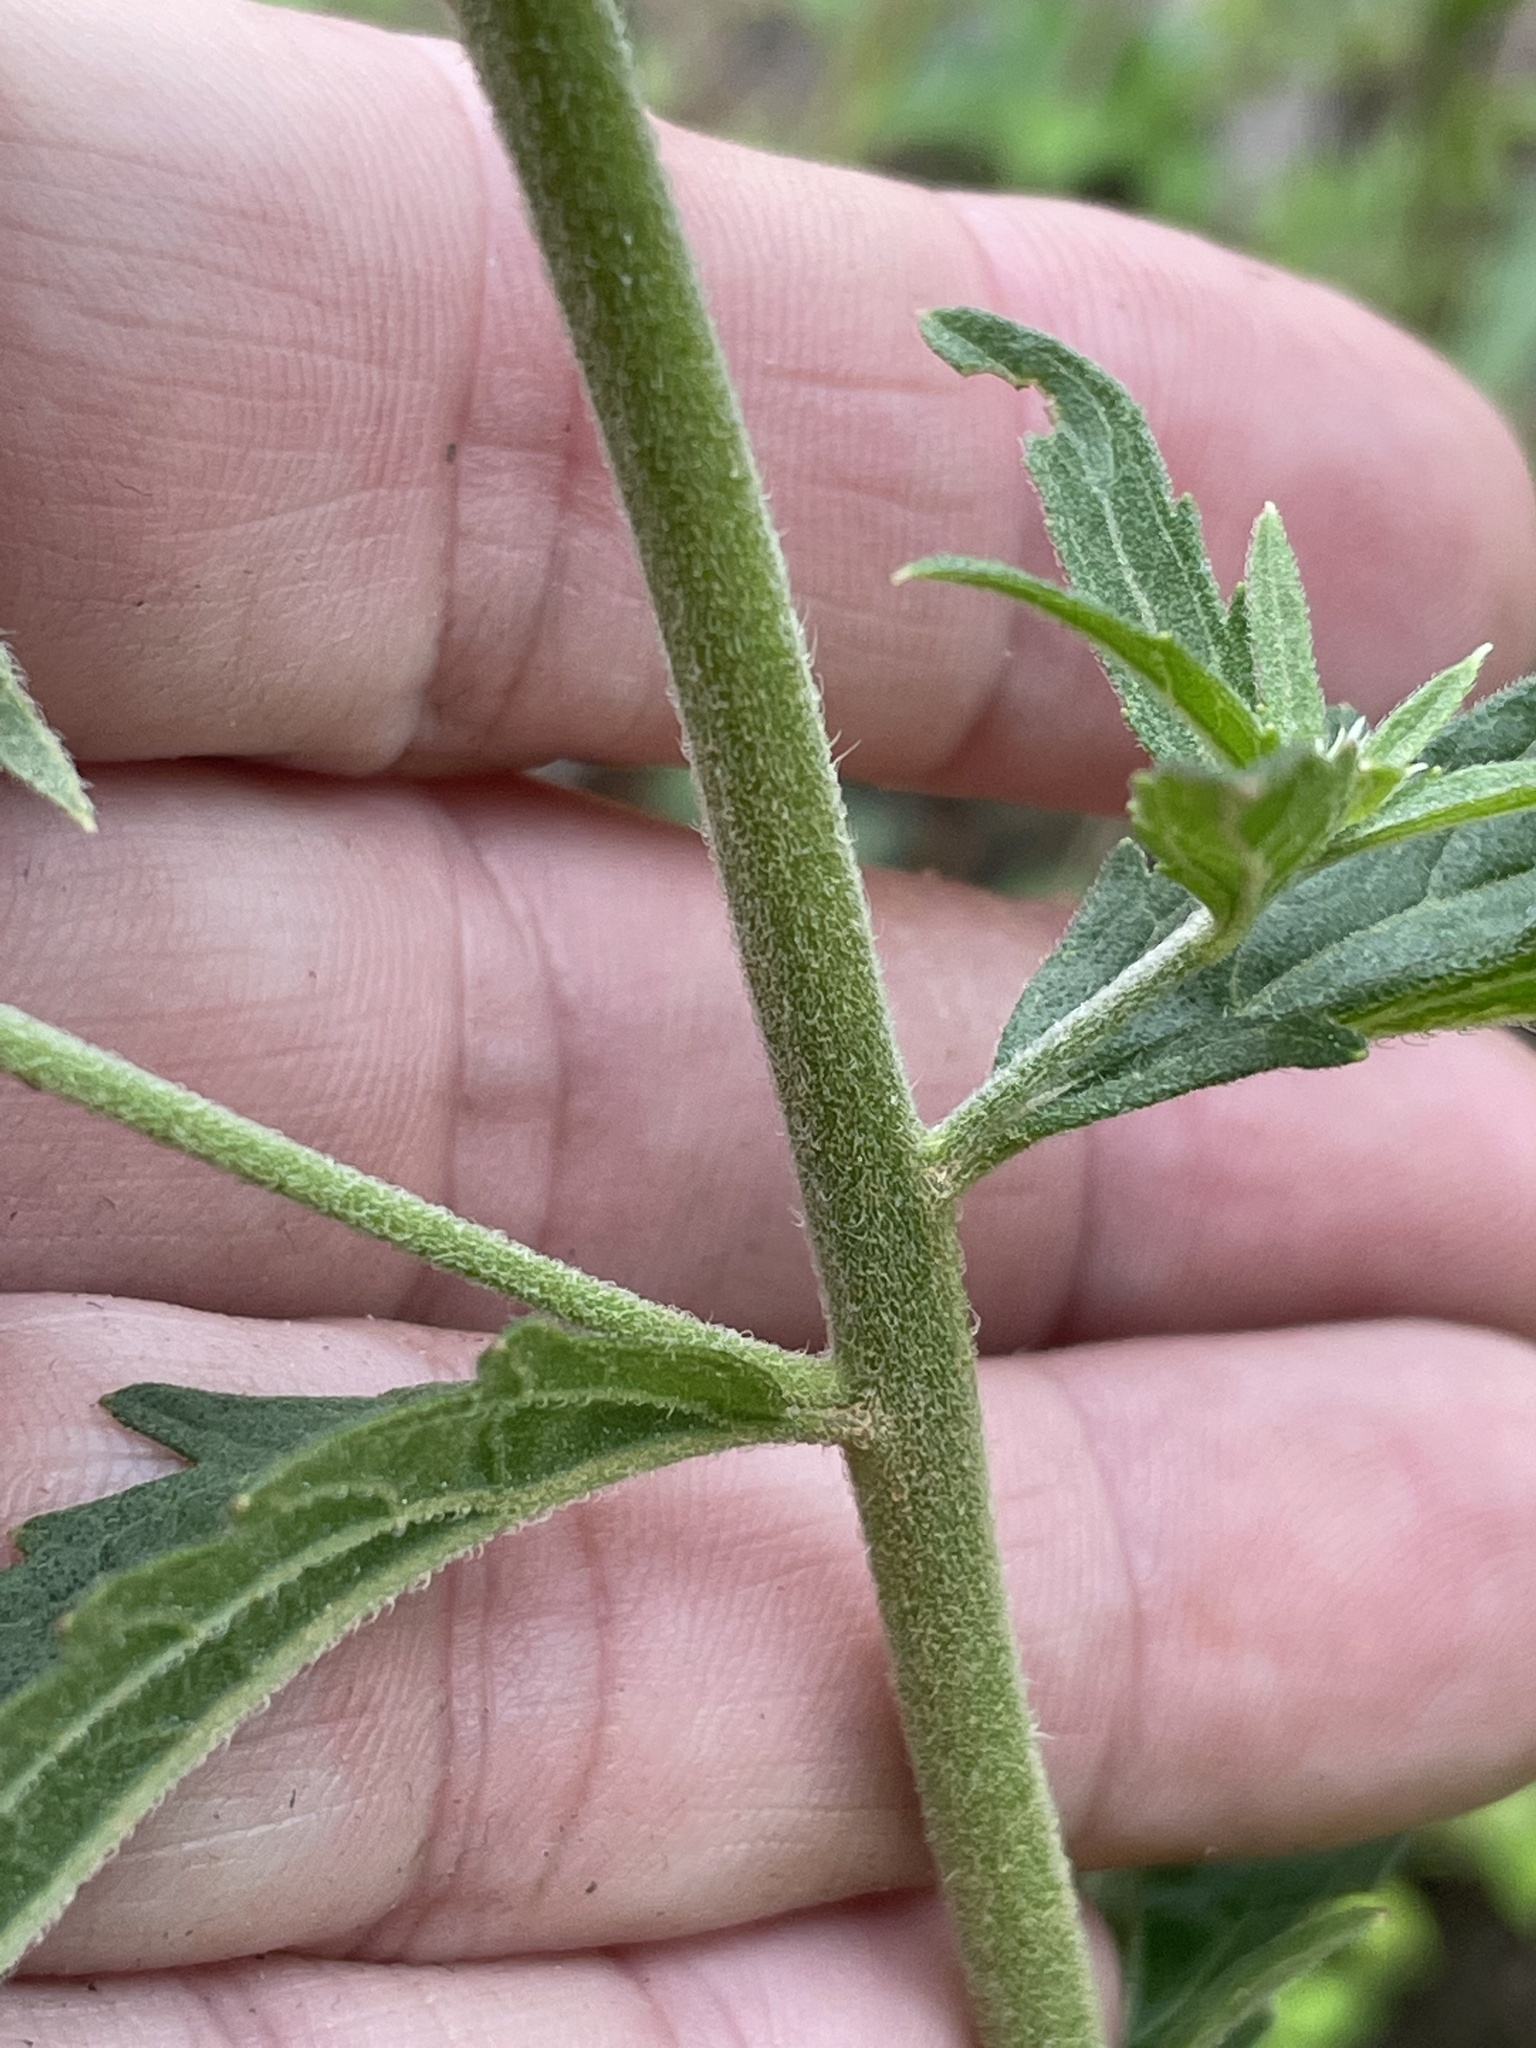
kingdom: Plantae
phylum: Tracheophyta
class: Magnoliopsida
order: Asterales
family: Asteraceae
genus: Eupatorium
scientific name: Eupatorium album
